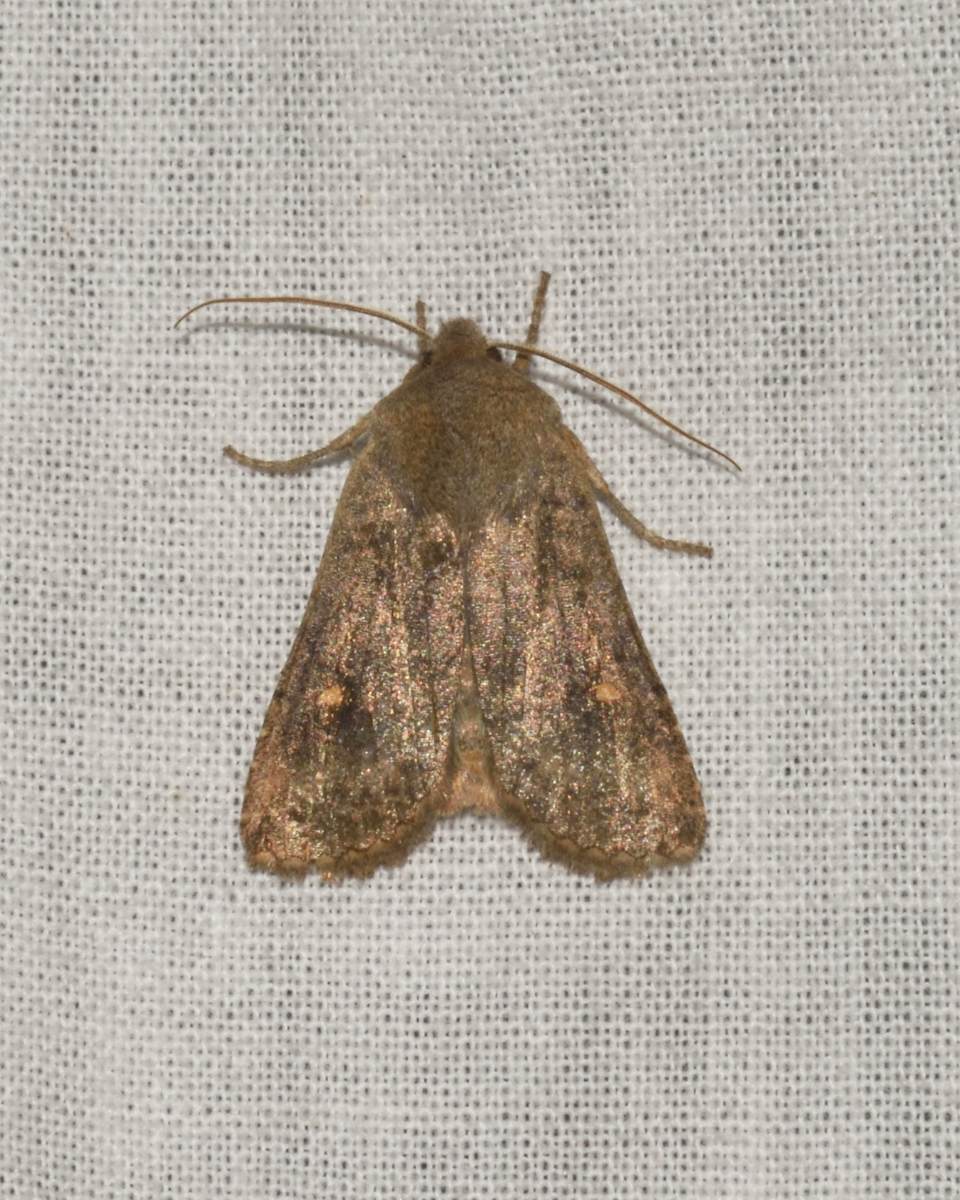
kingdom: Animalia
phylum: Arthropoda
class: Insecta
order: Lepidoptera
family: Noctuidae
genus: Eupsilia
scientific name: Eupsilia transversa
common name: Satellite
